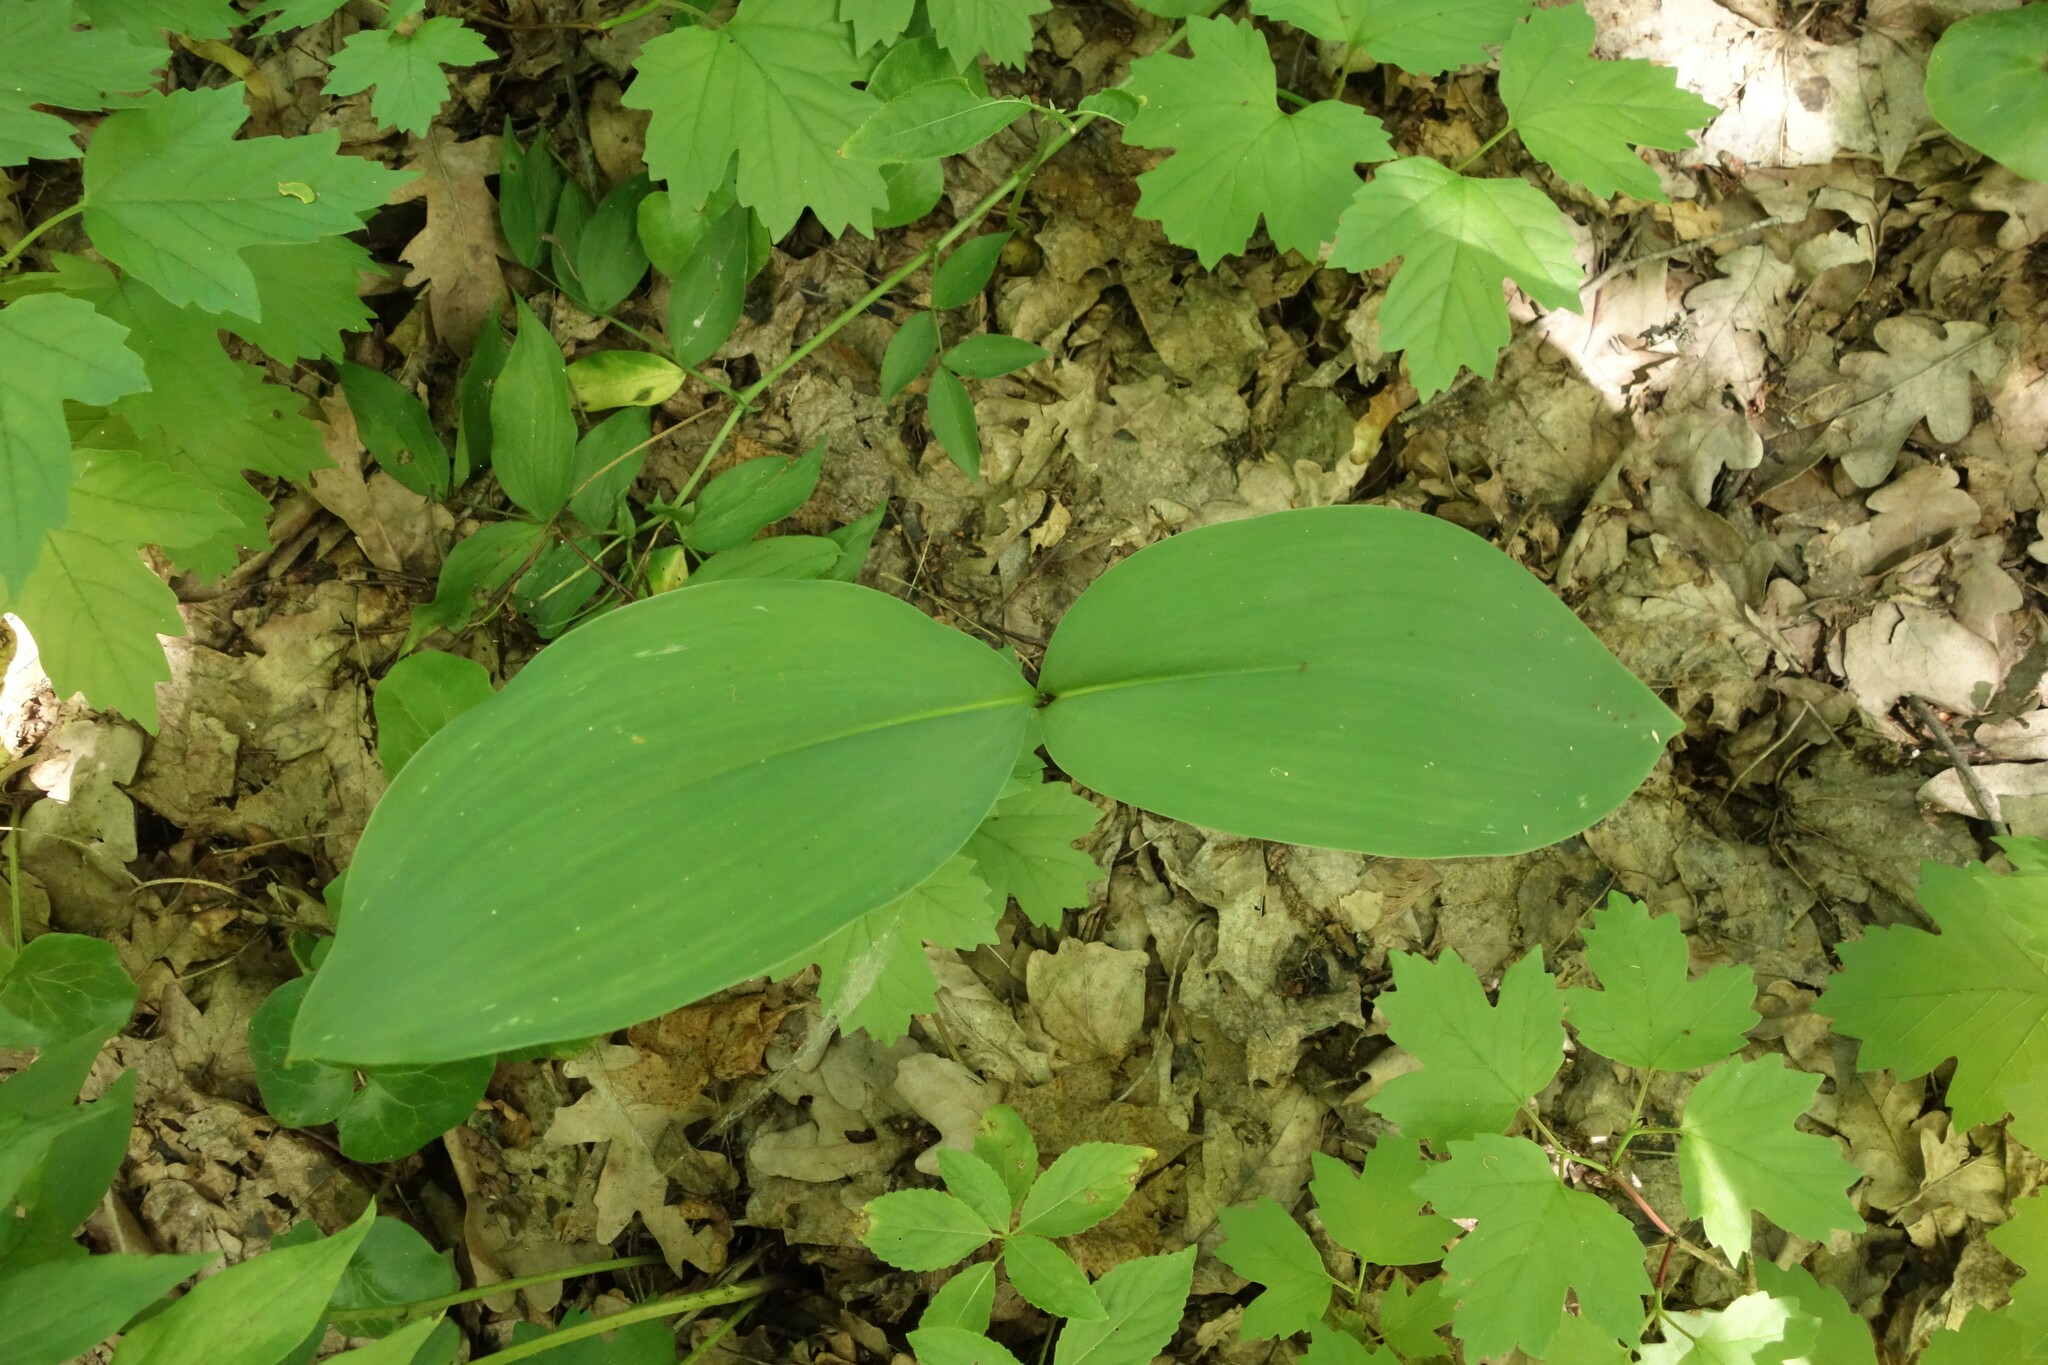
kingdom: Plantae
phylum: Tracheophyta
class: Liliopsida
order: Asparagales
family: Asparagaceae
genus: Convallaria
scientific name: Convallaria majalis
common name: Lily-of-the-valley
